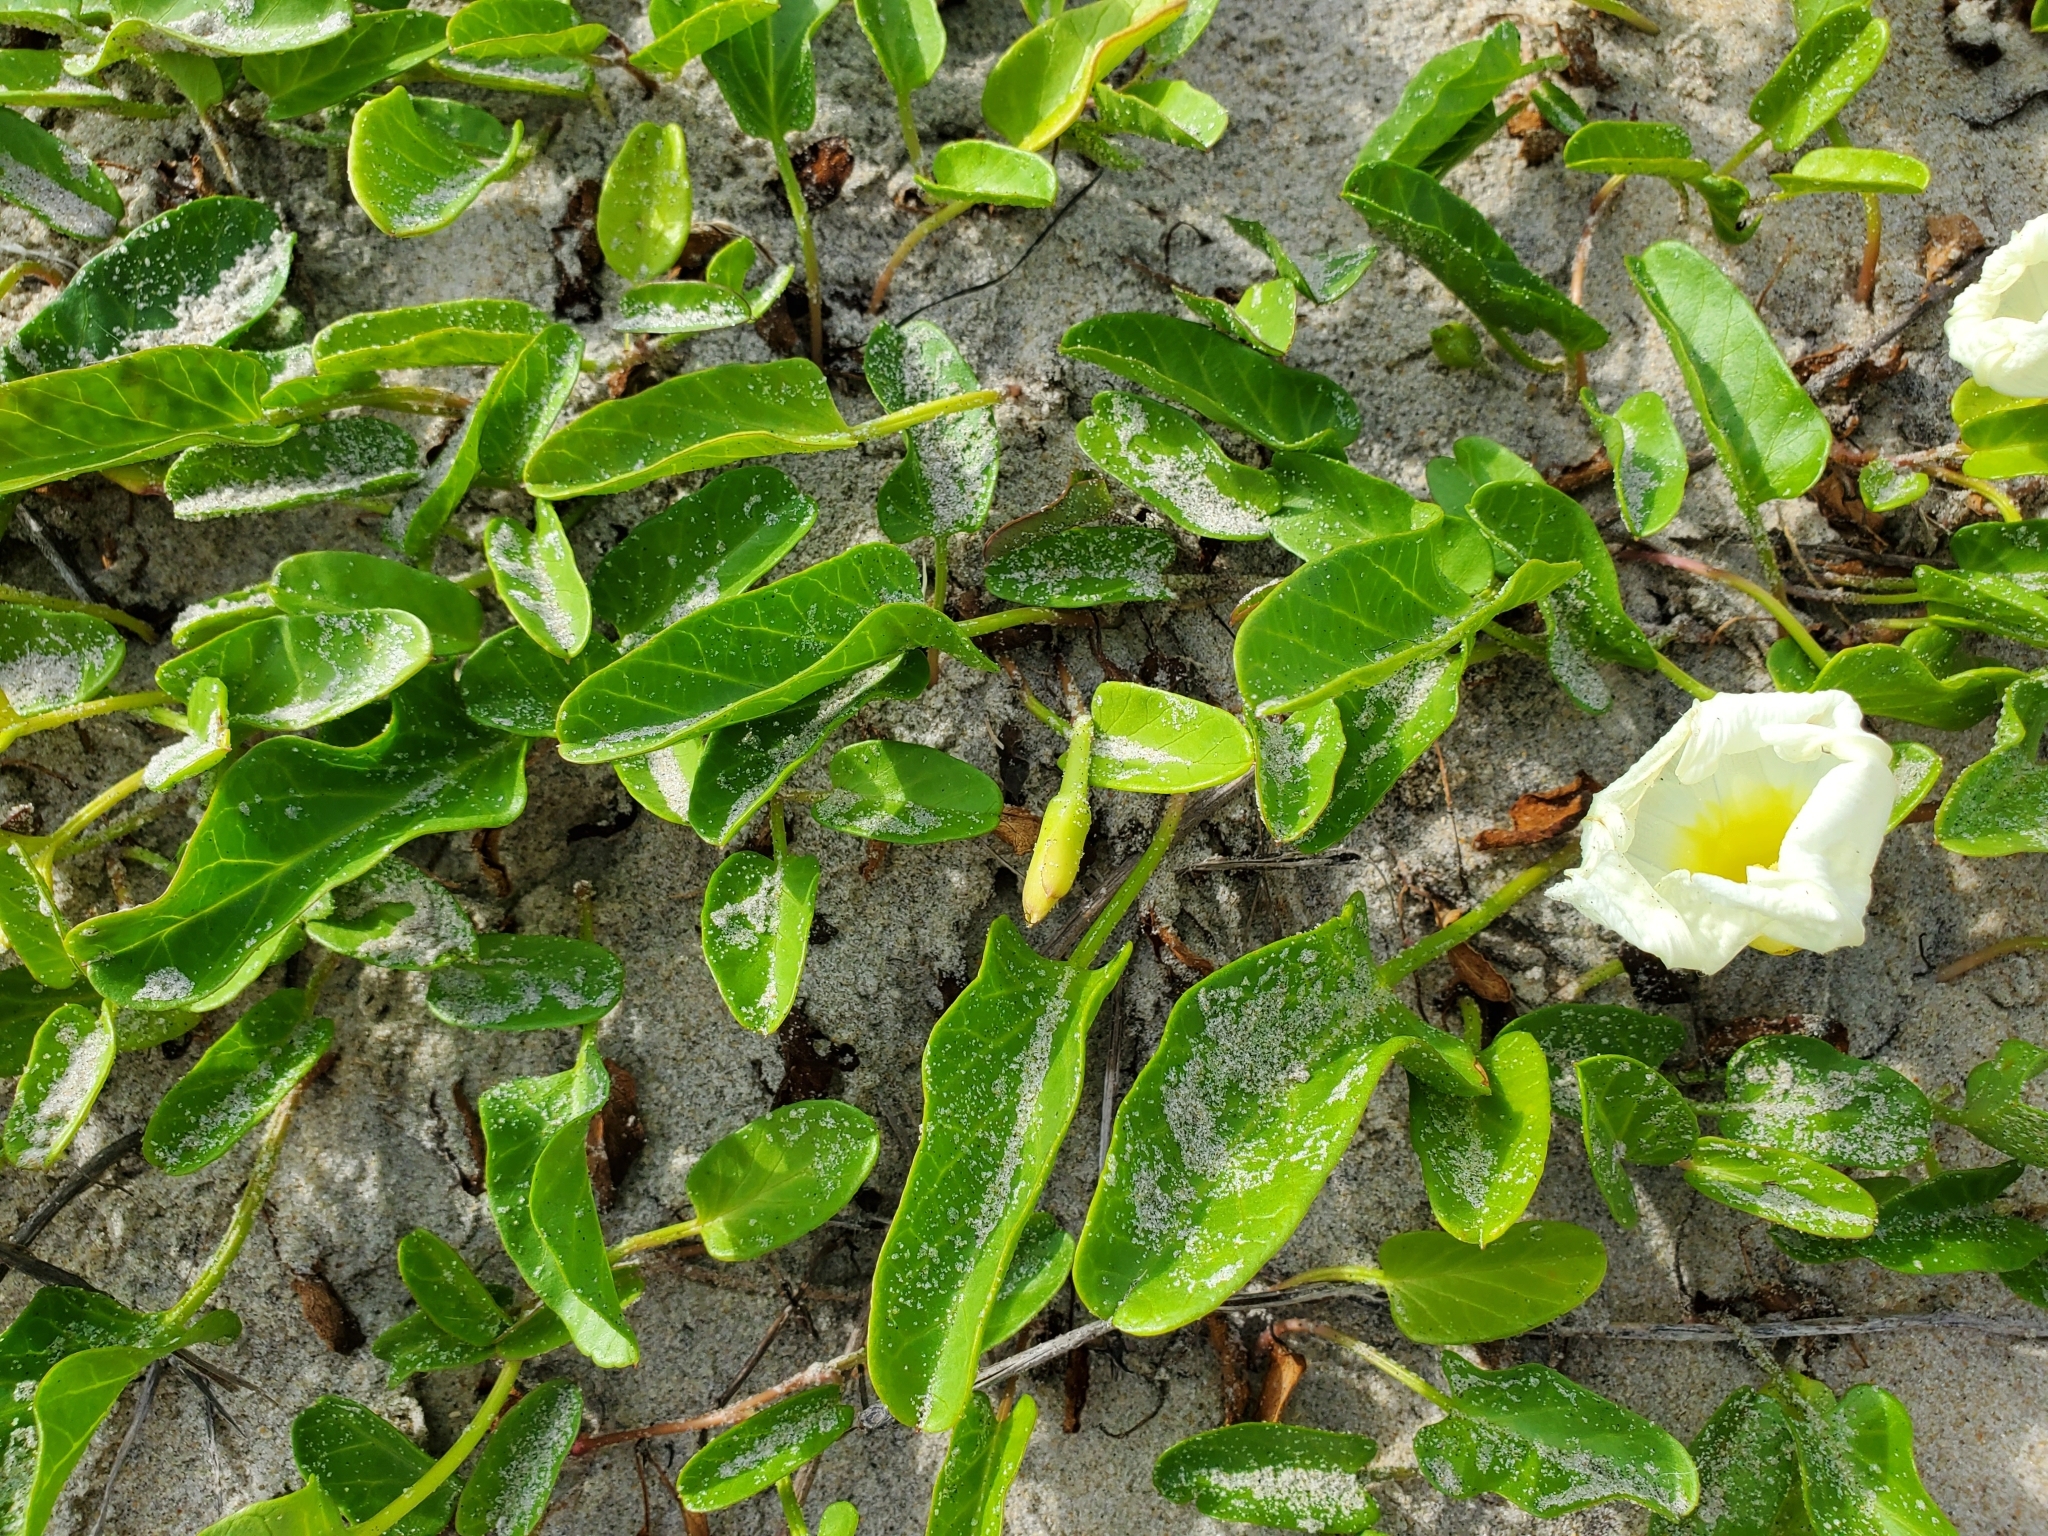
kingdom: Plantae
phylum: Tracheophyta
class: Magnoliopsida
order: Solanales
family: Convolvulaceae
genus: Ipomoea
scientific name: Ipomoea imperati
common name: Fiddle-leaf morning-glory
